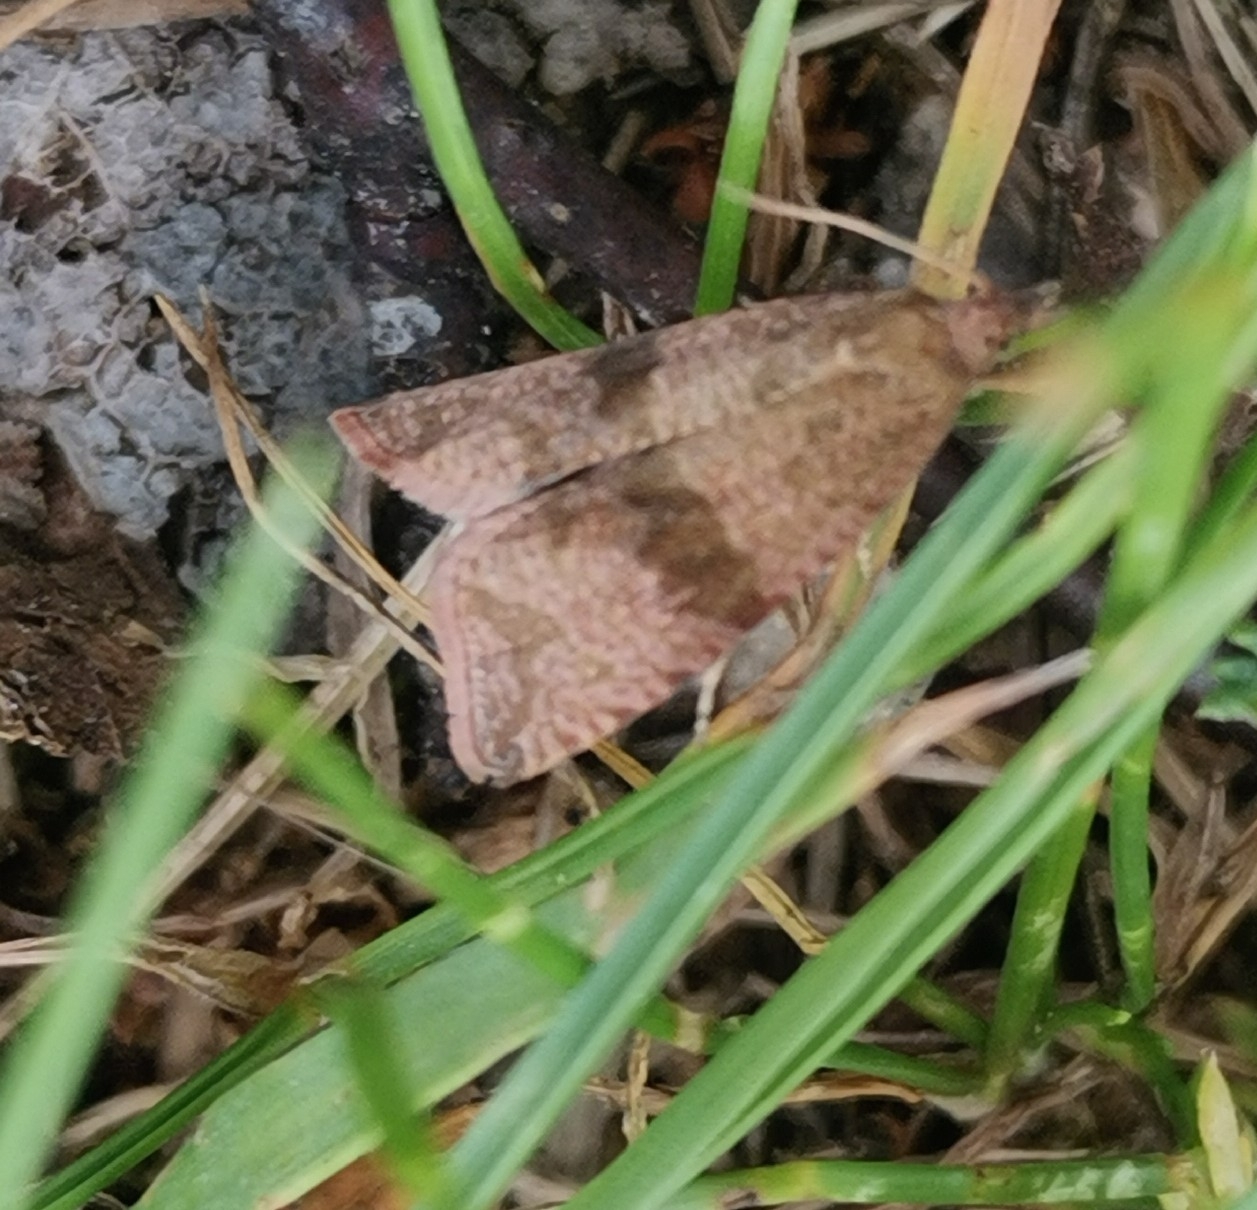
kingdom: Animalia
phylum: Arthropoda
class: Insecta
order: Lepidoptera
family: Tortricidae
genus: Celypha
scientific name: Celypha striana
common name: Barred marble
